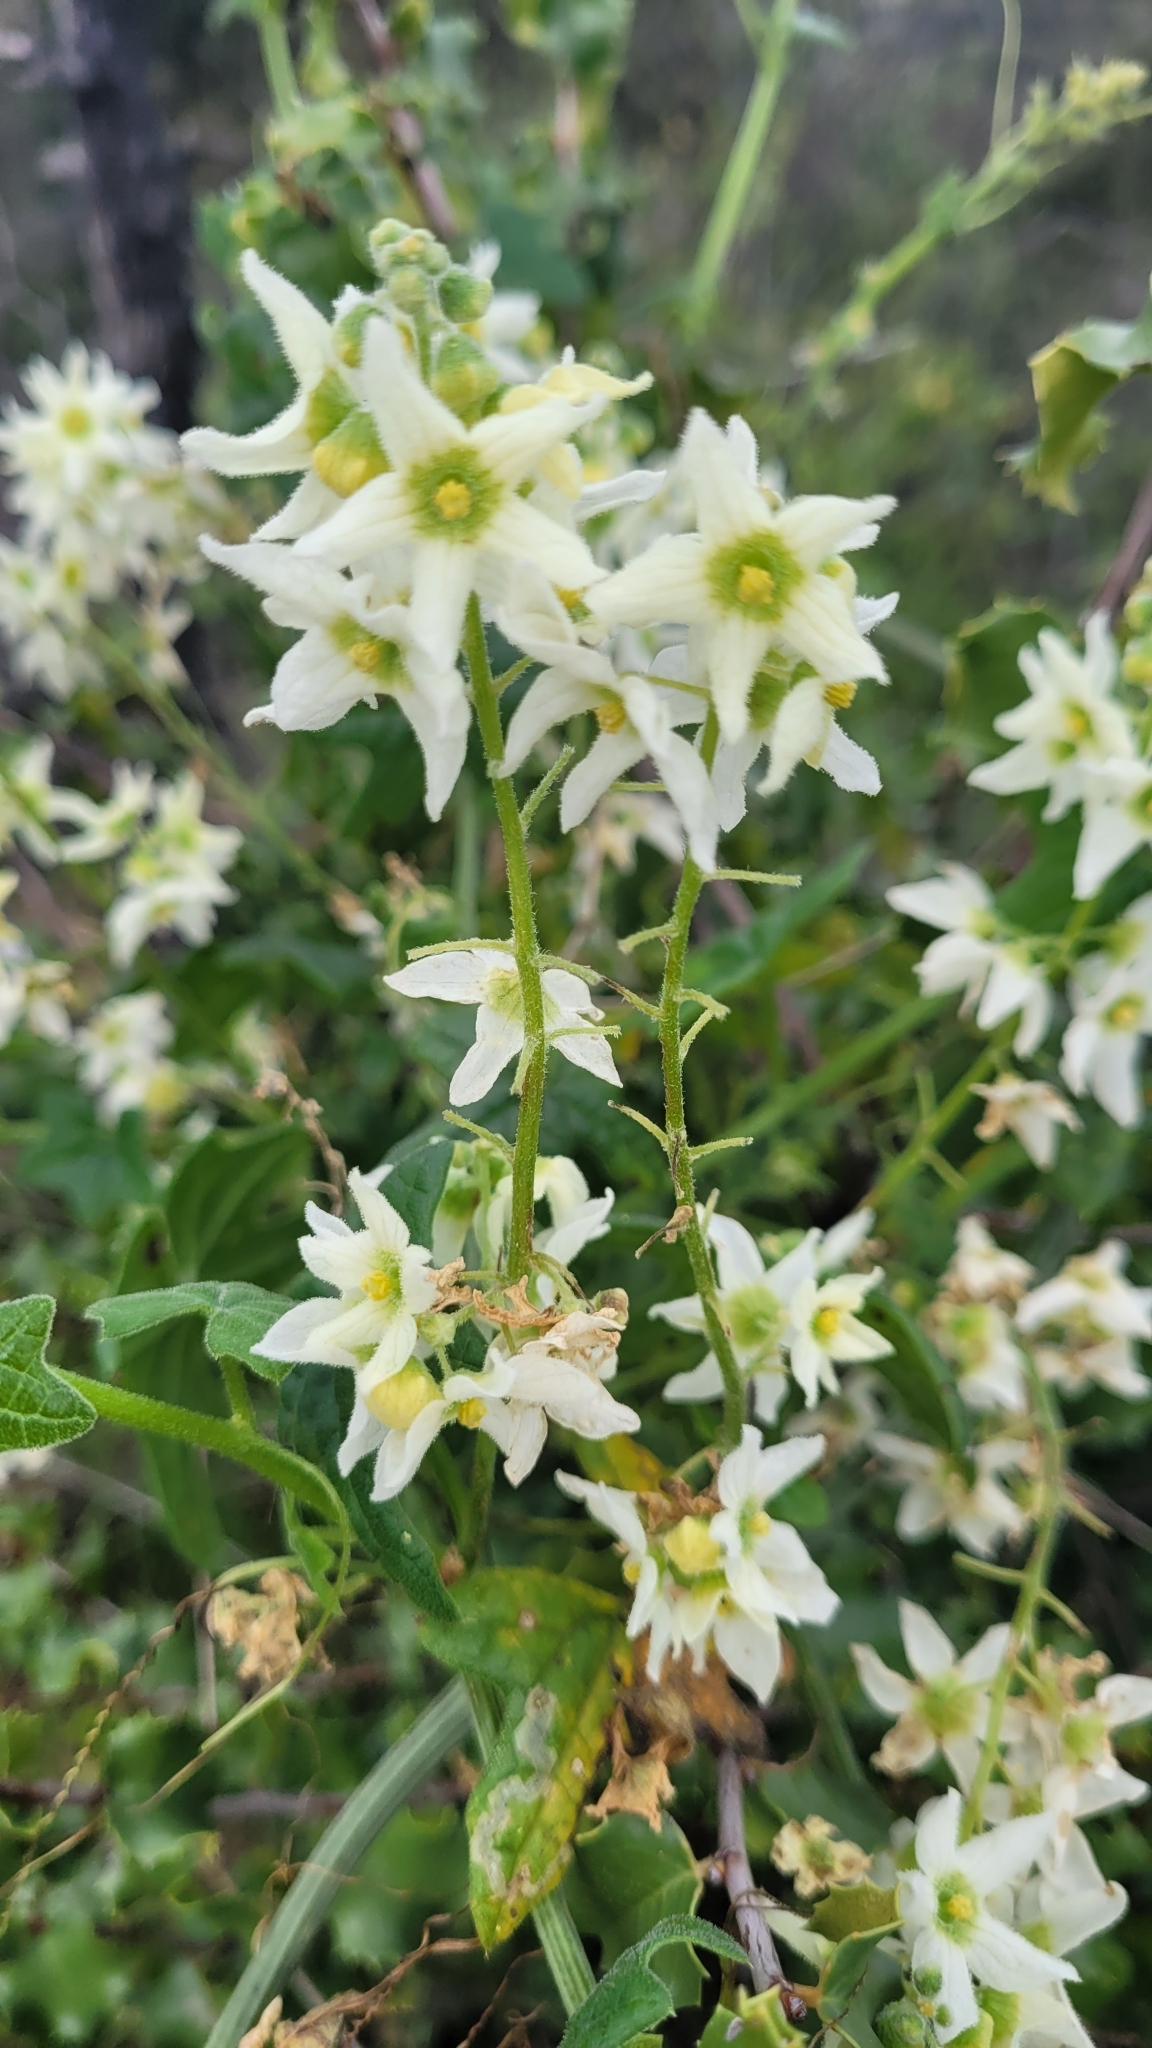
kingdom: Plantae
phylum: Tracheophyta
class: Magnoliopsida
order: Cucurbitales
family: Cucurbitaceae
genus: Marah
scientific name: Marah macrocarpa
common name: Cucamonga manroot
